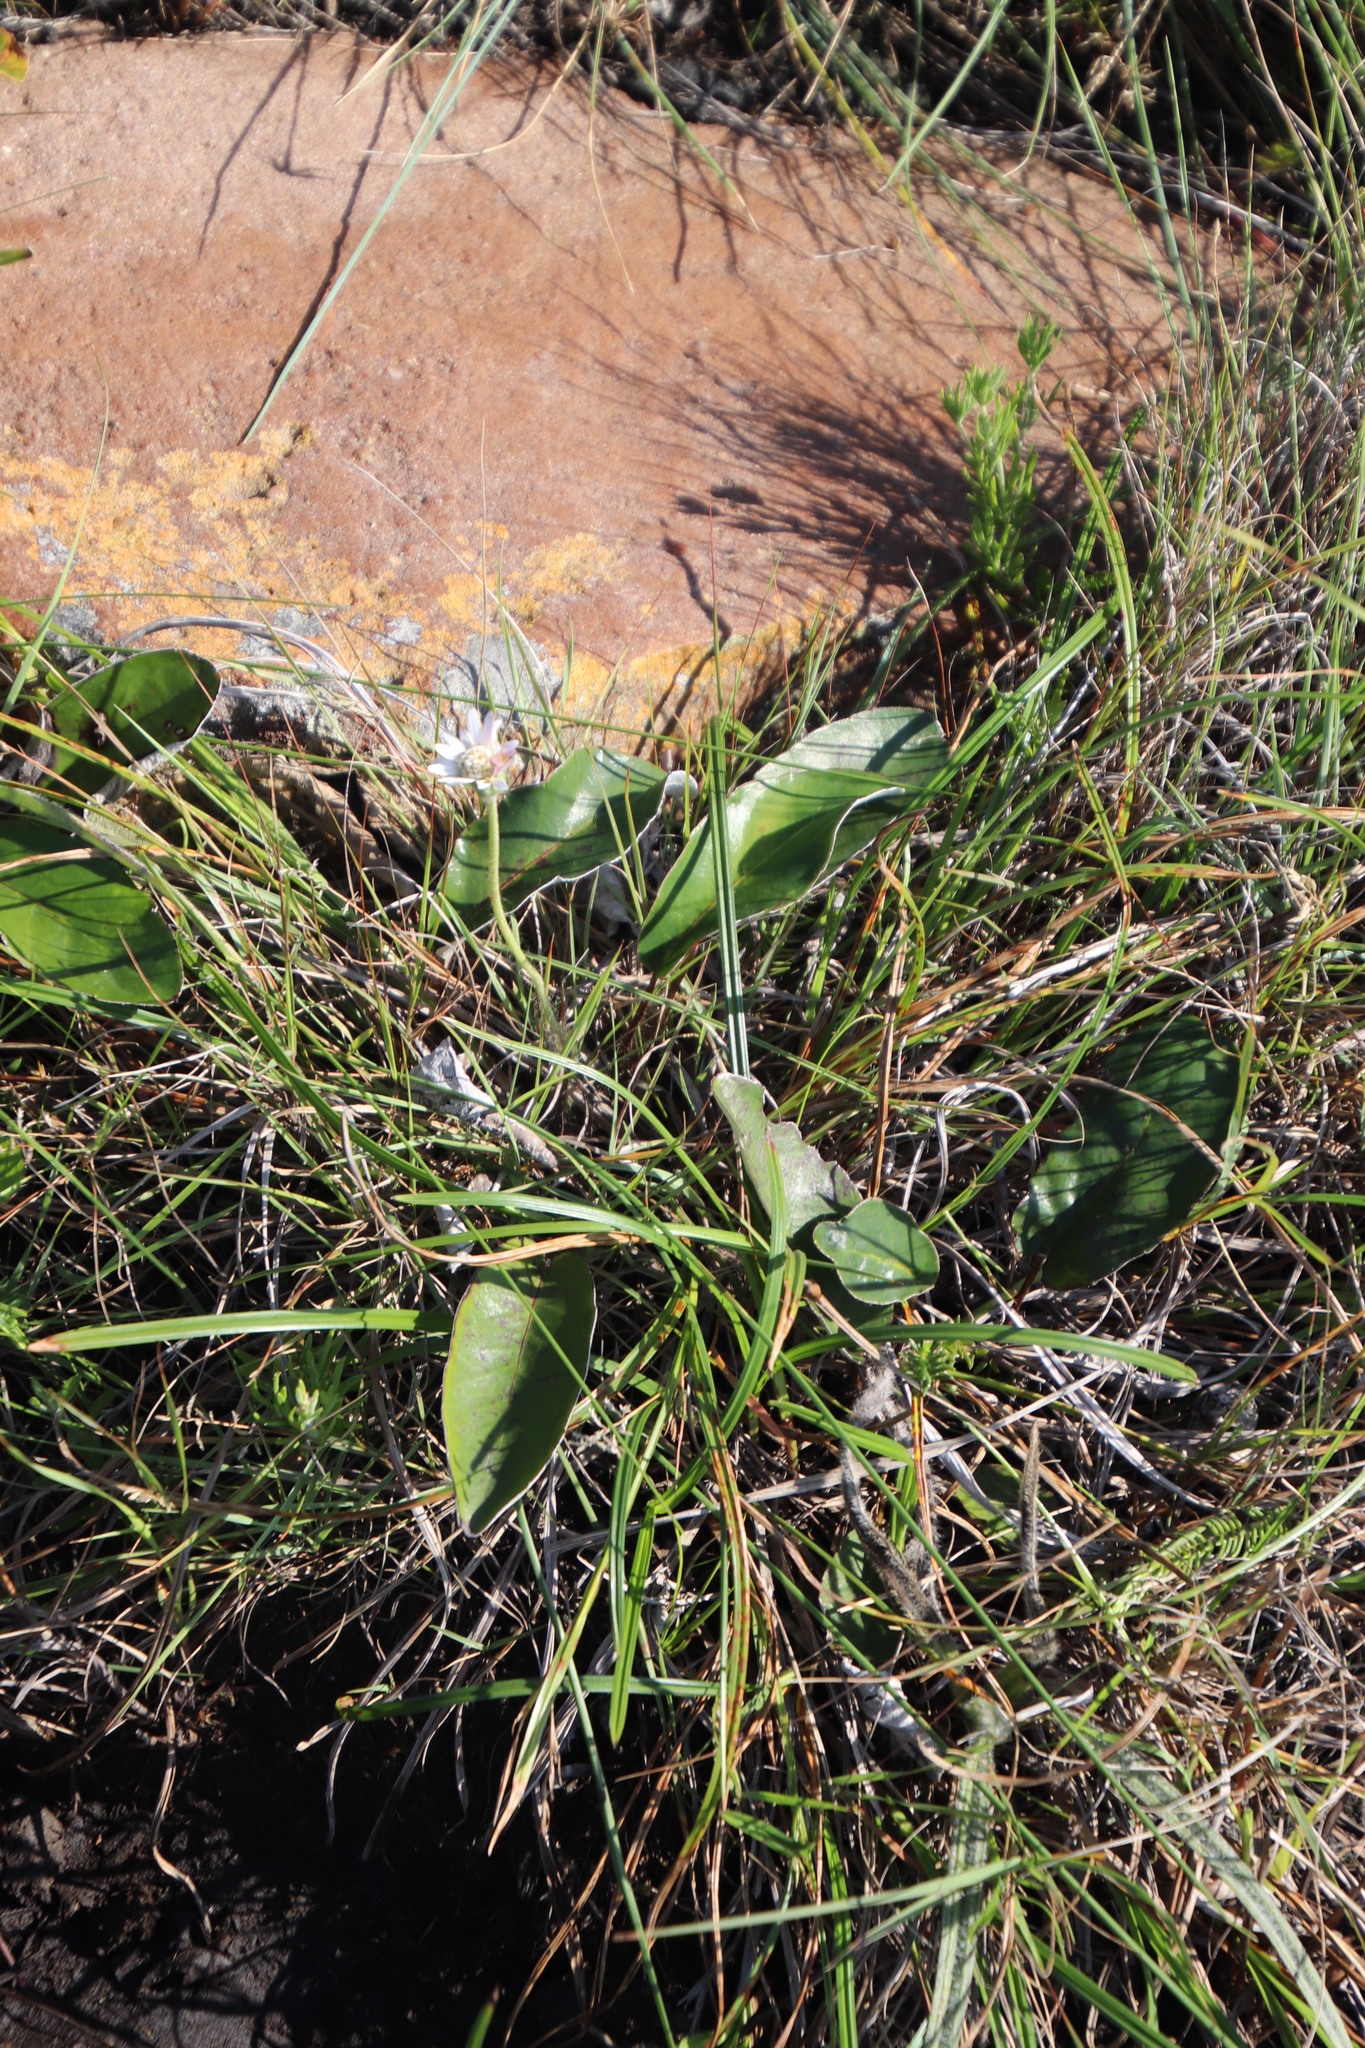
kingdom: Plantae
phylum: Tracheophyta
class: Magnoliopsida
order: Asterales
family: Asteraceae
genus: Gerbera
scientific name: Gerbera ambigua
